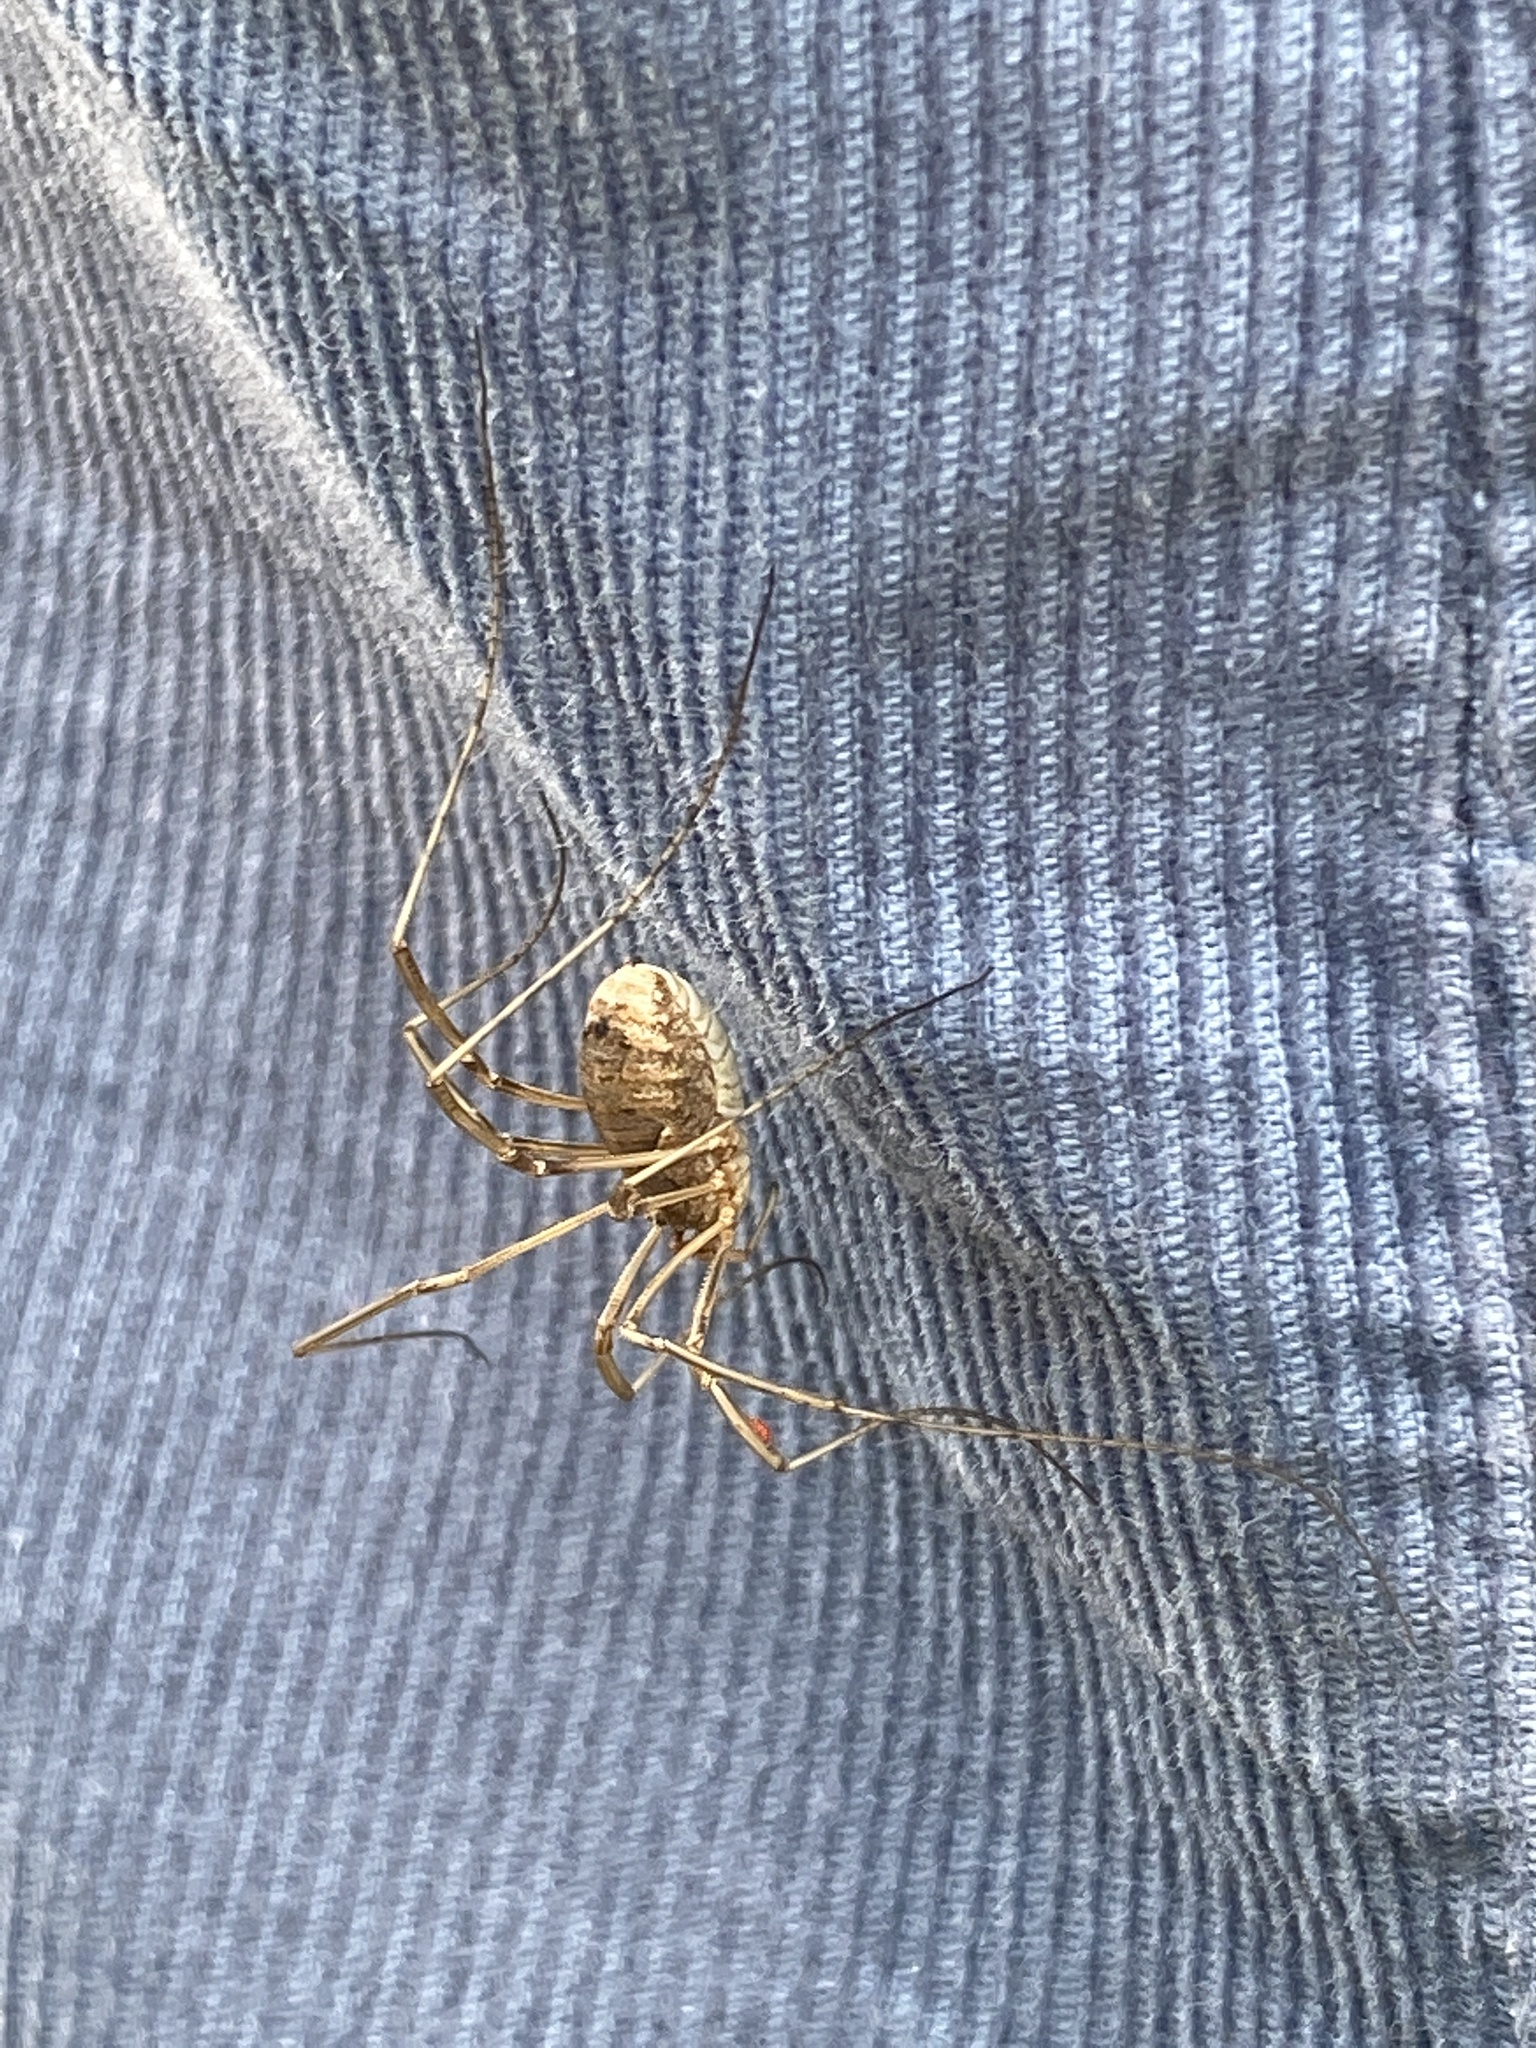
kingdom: Animalia
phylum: Arthropoda
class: Arachnida
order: Opiliones
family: Phalangiidae
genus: Phalangium
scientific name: Phalangium opilio
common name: Daddy longleg
